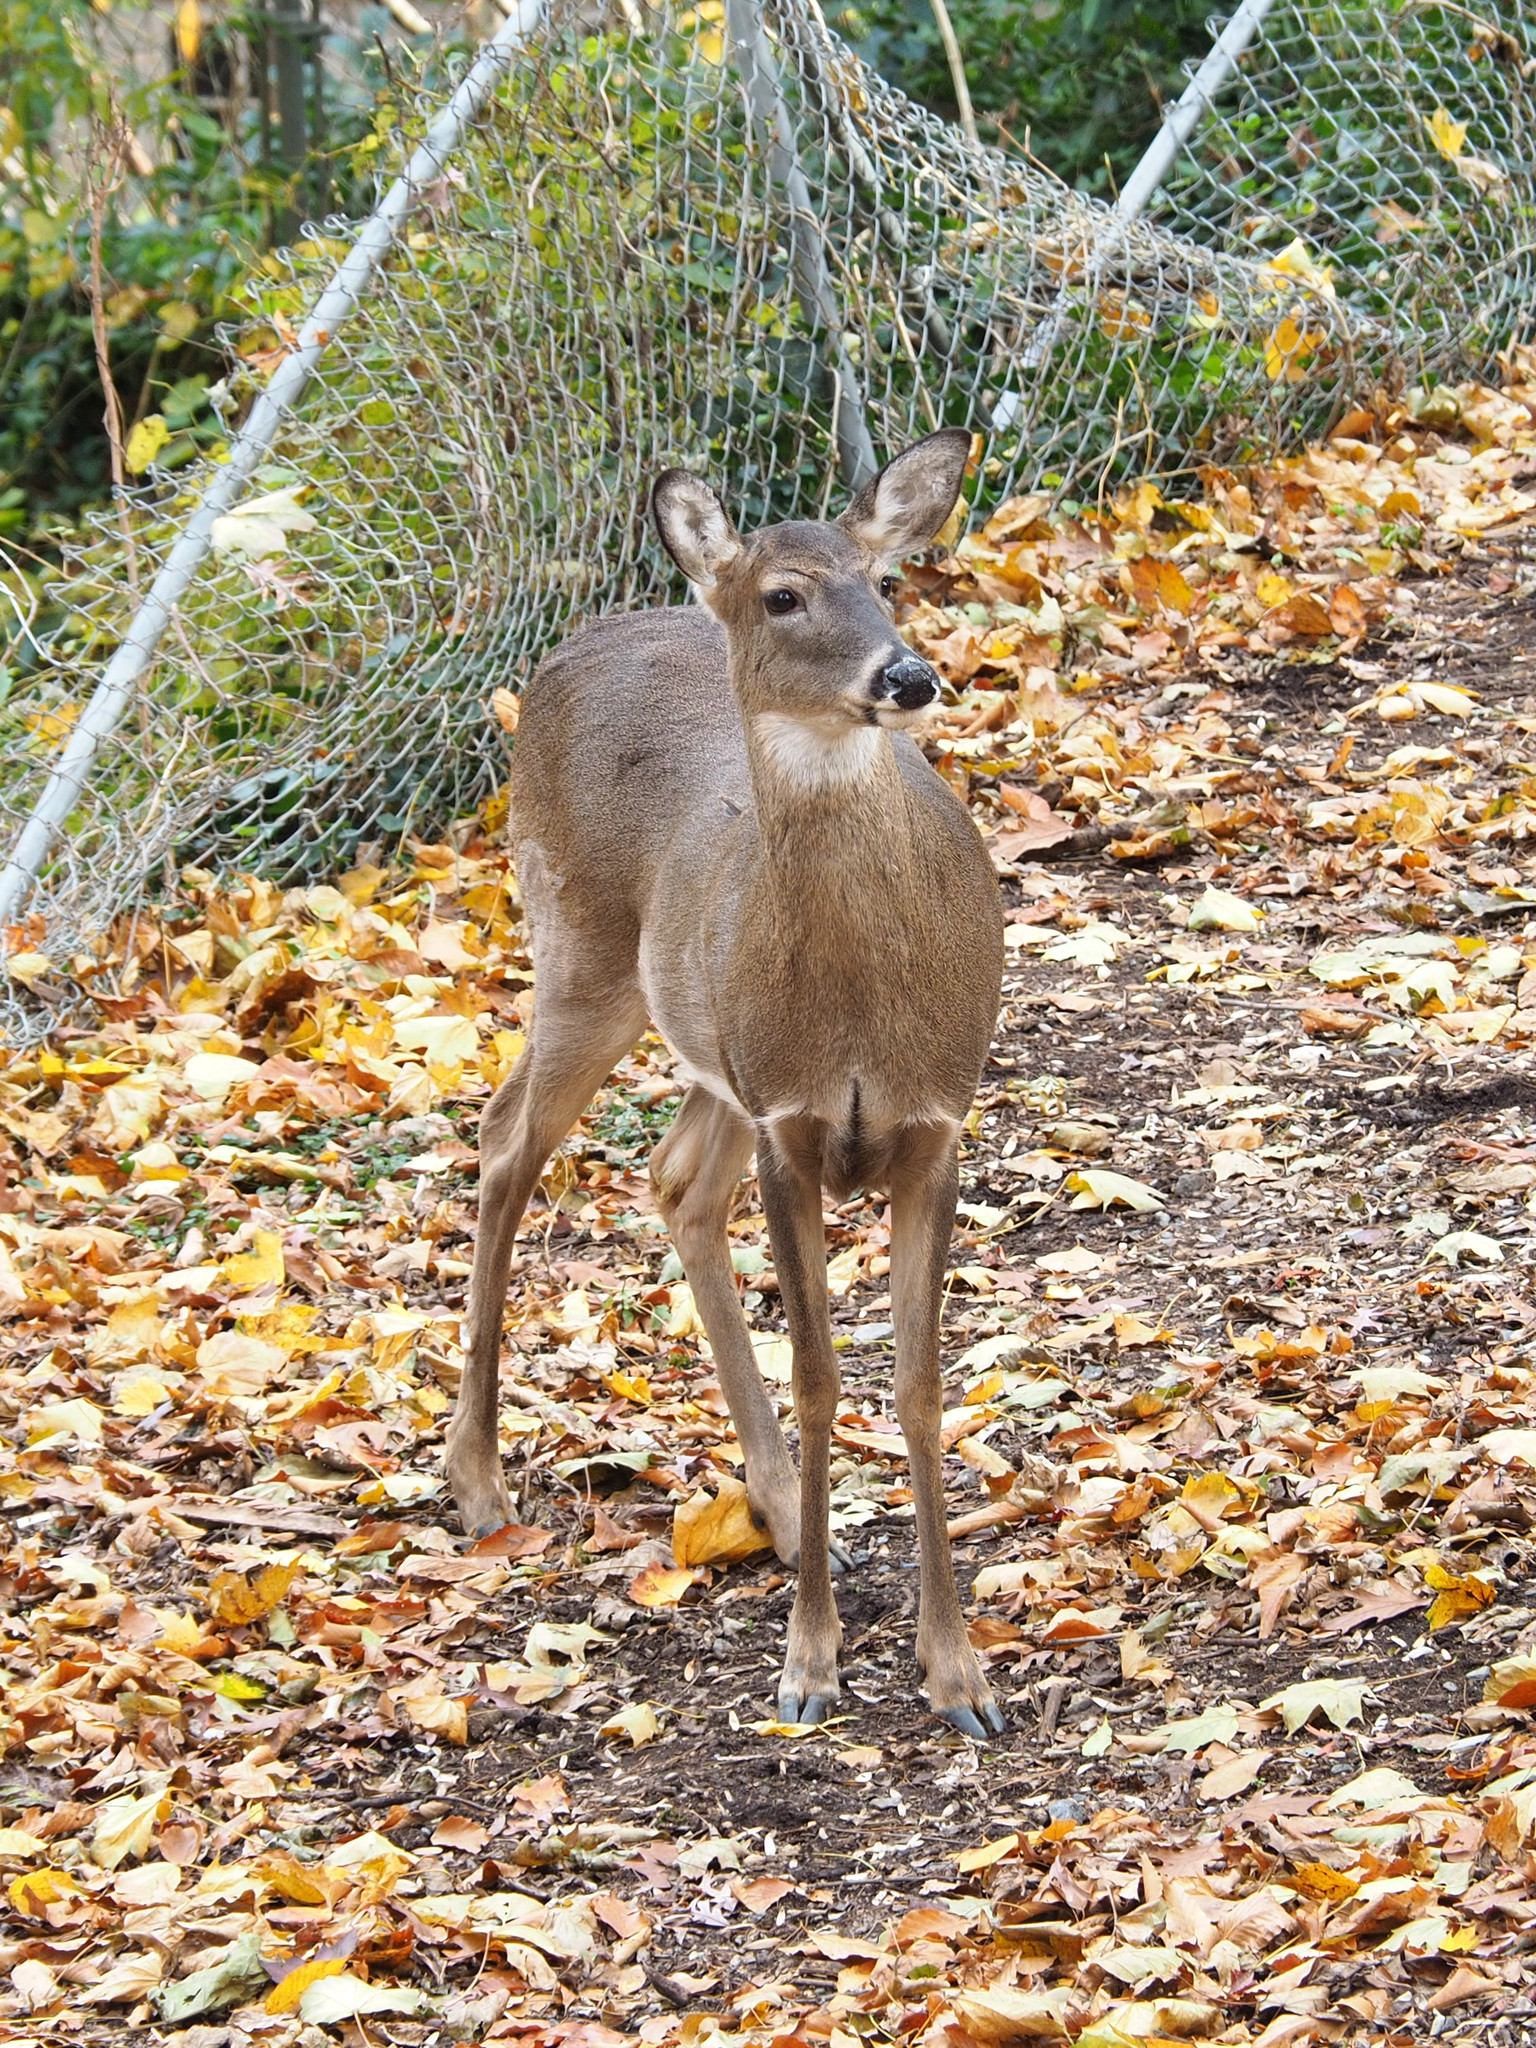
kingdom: Animalia
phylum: Chordata
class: Mammalia
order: Artiodactyla
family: Cervidae
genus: Odocoileus
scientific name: Odocoileus virginianus
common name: White-tailed deer
